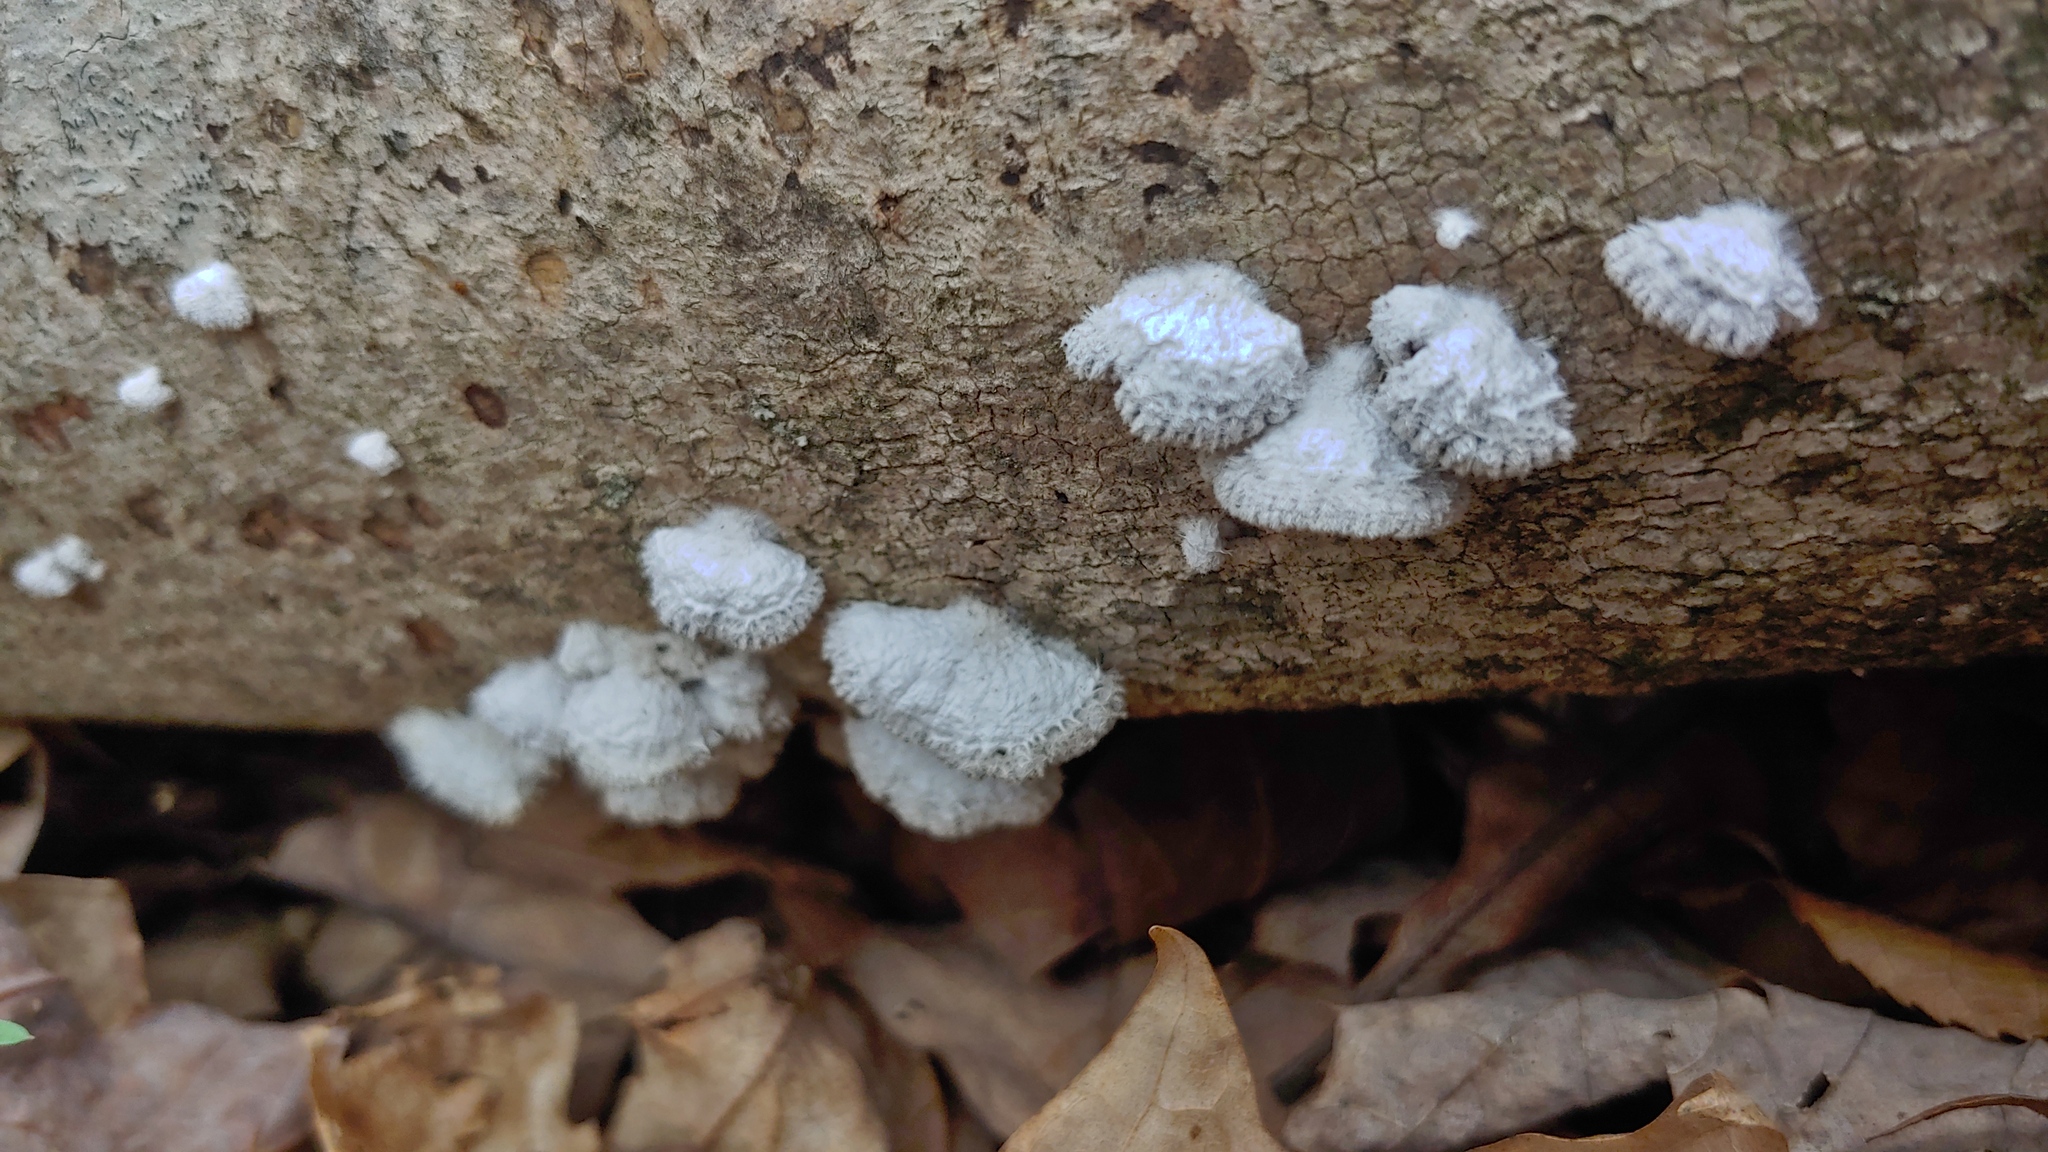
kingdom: Fungi
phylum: Basidiomycota
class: Agaricomycetes
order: Agaricales
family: Schizophyllaceae
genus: Schizophyllum
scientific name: Schizophyllum commune
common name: Common porecrust
